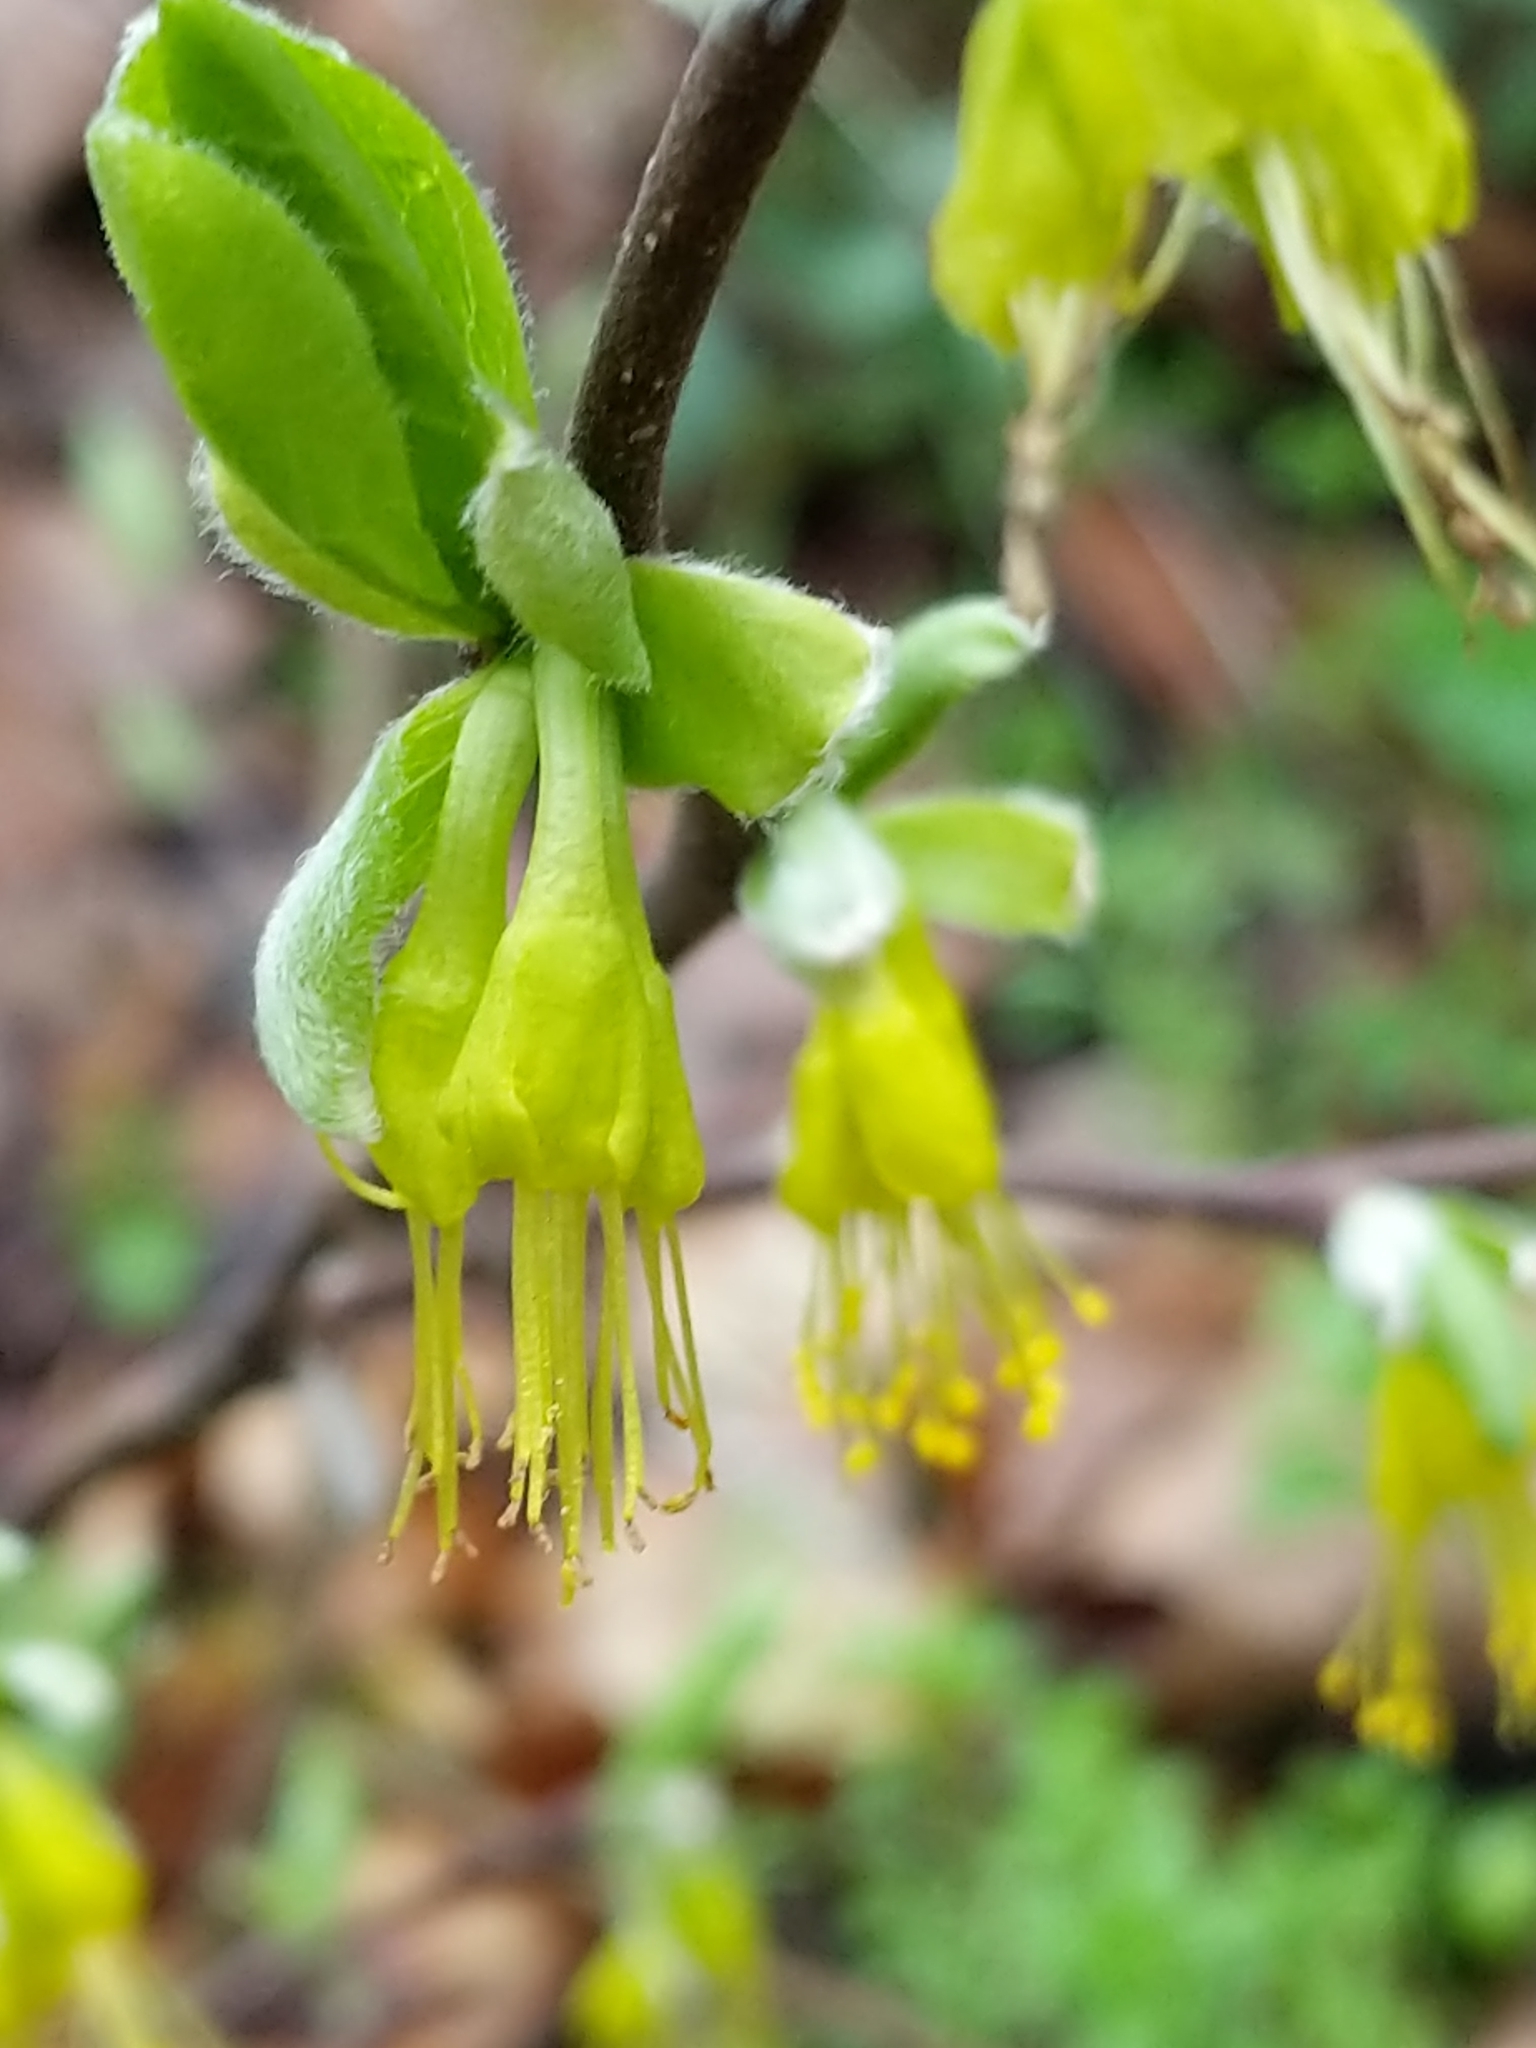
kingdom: Plantae
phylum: Tracheophyta
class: Magnoliopsida
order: Malvales
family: Thymelaeaceae
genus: Dirca
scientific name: Dirca occidentalis
